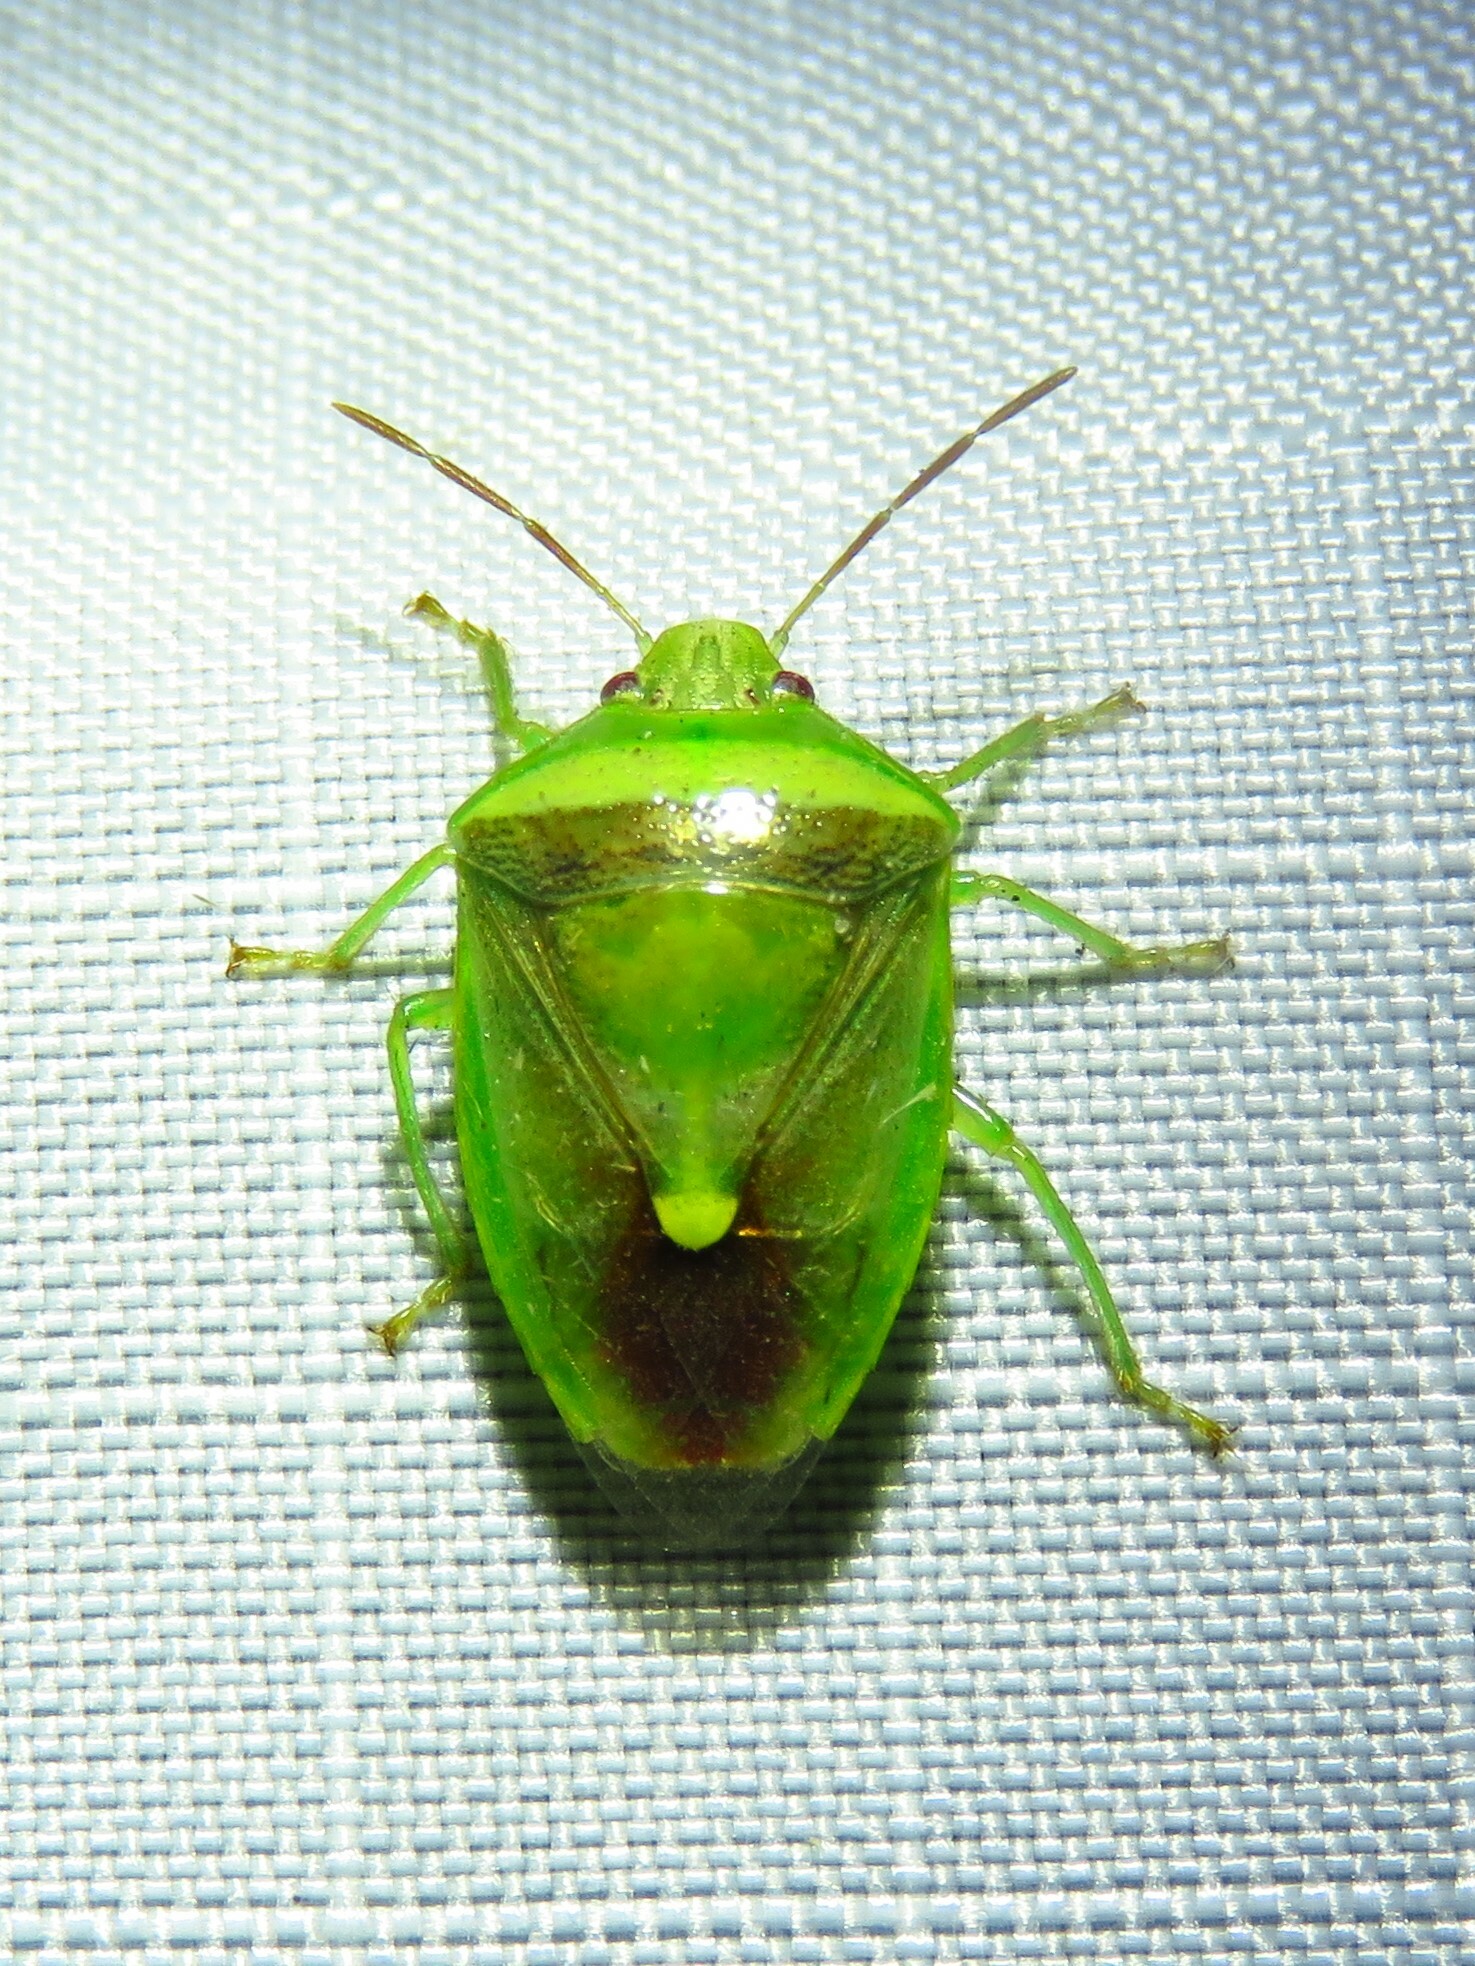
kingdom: Animalia
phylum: Arthropoda
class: Insecta
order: Hemiptera
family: Pentatomidae
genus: Banasa
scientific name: Banasa dimidiata
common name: Green burgundy stink bug
